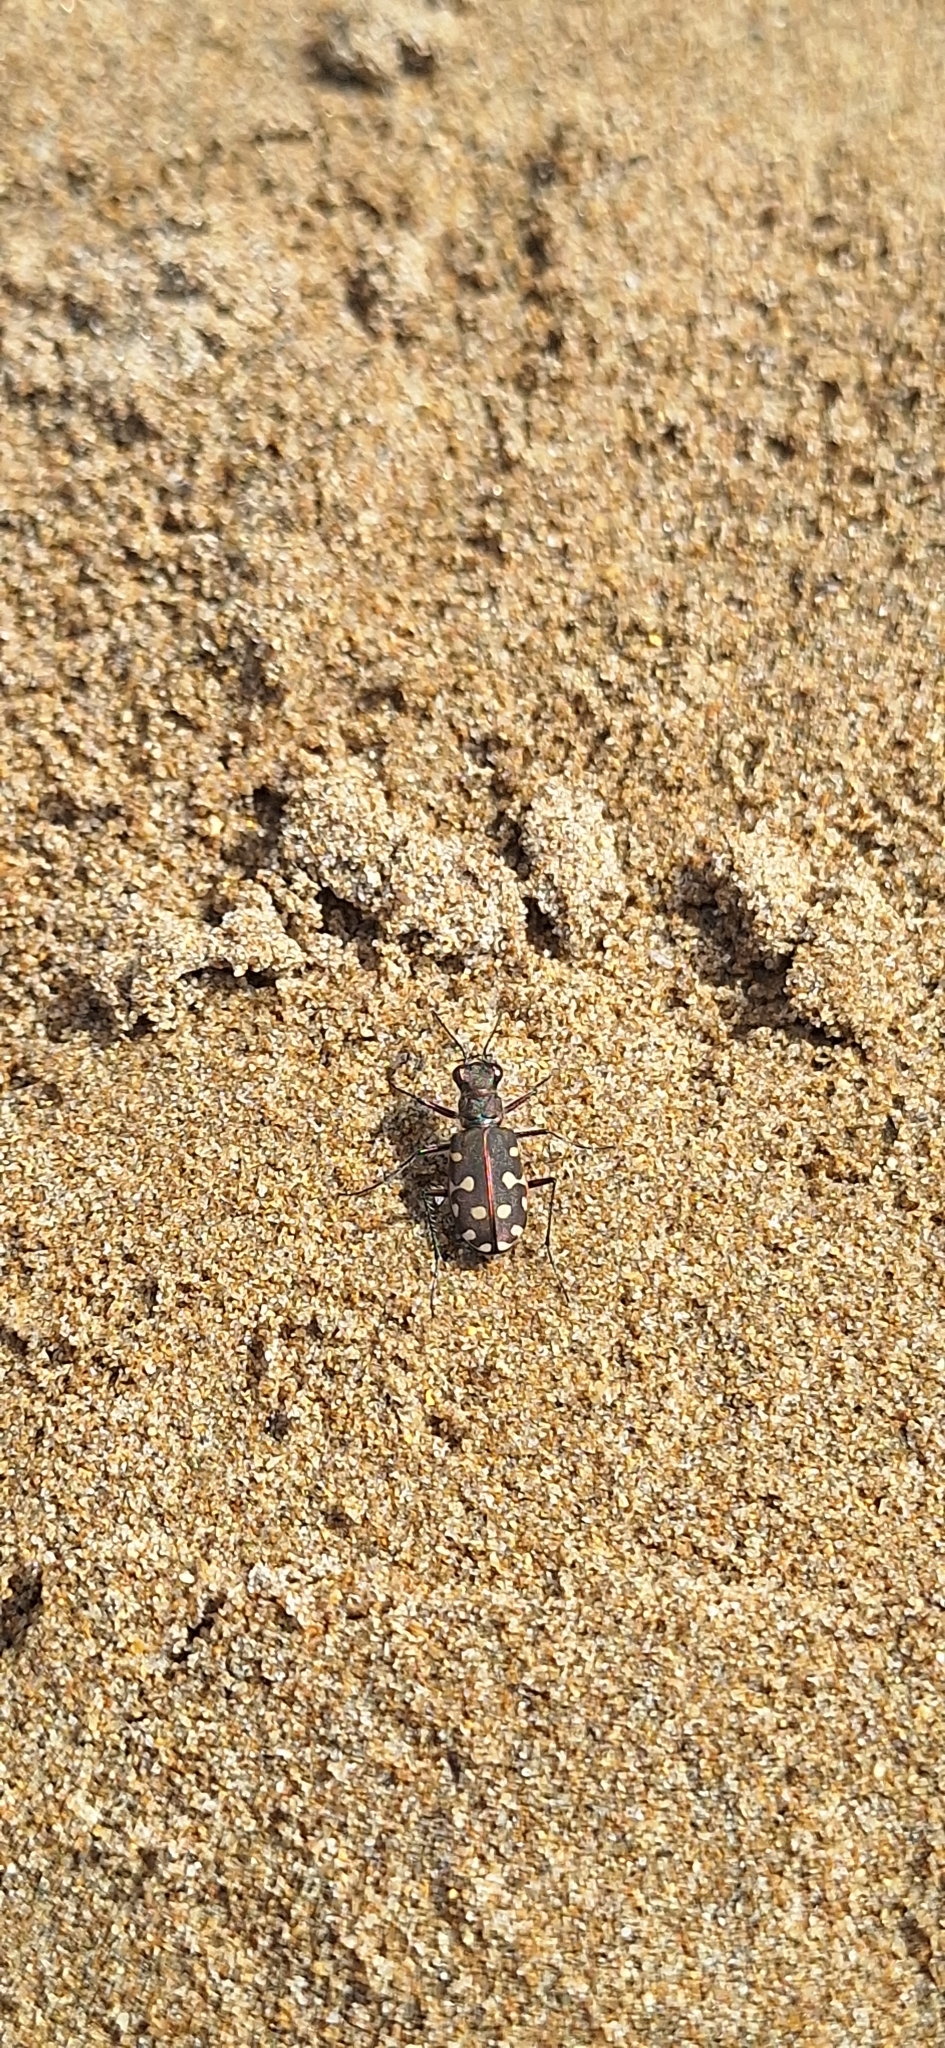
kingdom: Animalia
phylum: Arthropoda
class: Insecta
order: Coleoptera
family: Carabidae
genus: Cicindela
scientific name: Cicindela littoralis
